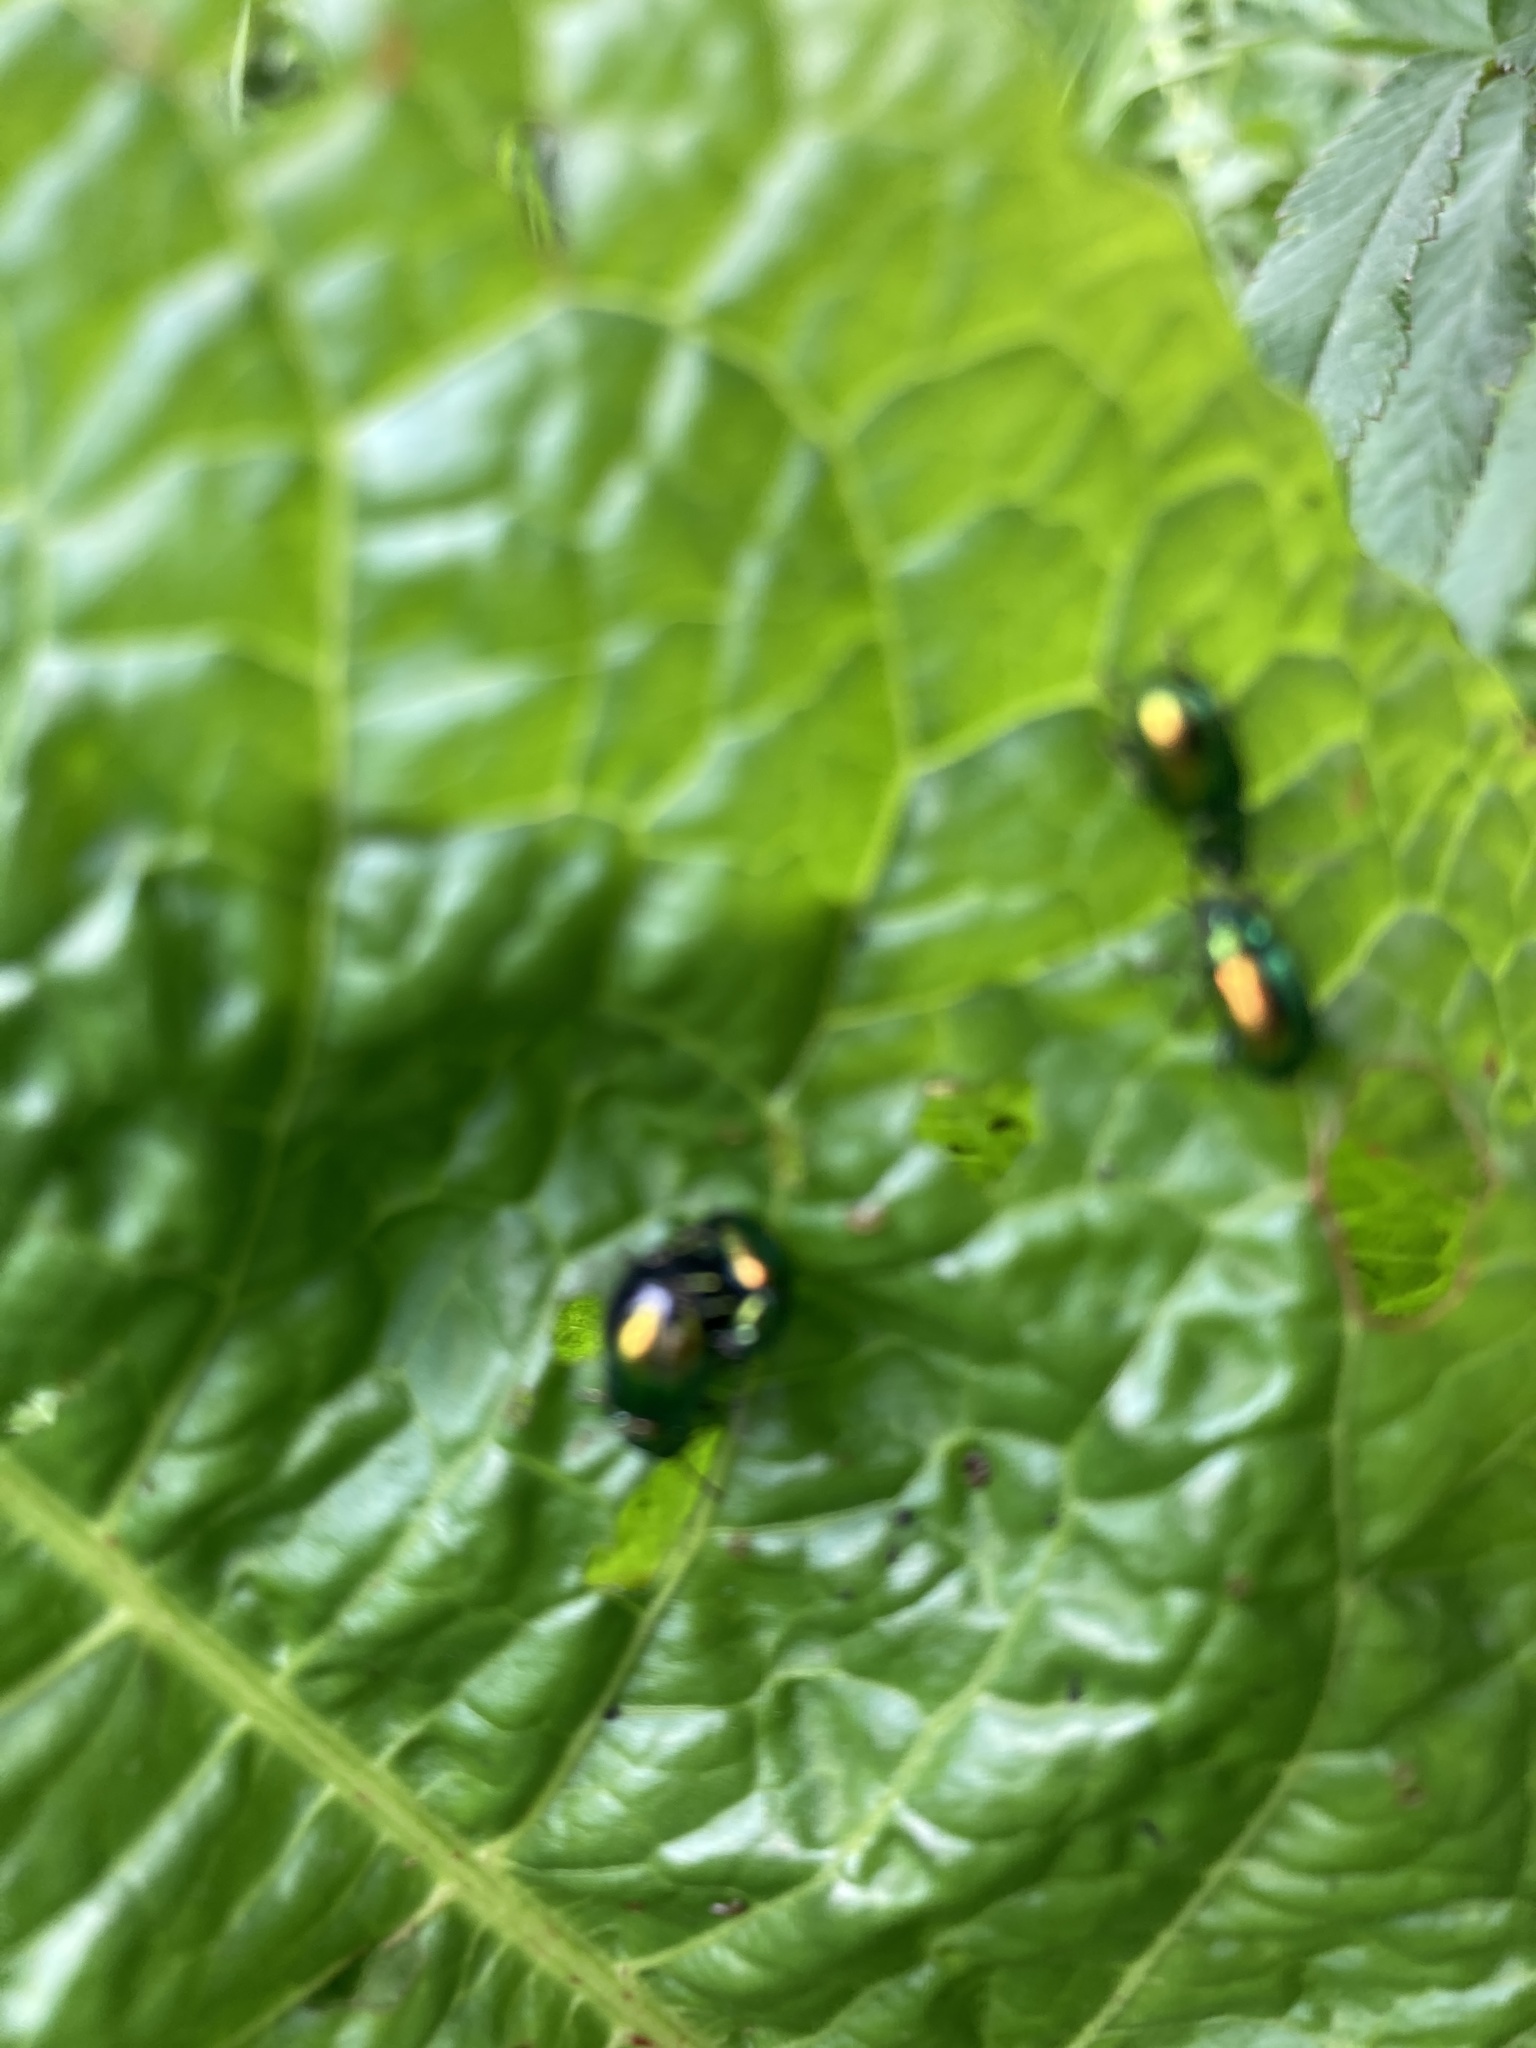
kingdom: Animalia
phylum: Arthropoda
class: Insecta
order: Coleoptera
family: Chrysomelidae
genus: Gastrophysa
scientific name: Gastrophysa viridula
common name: Green dock beetle
